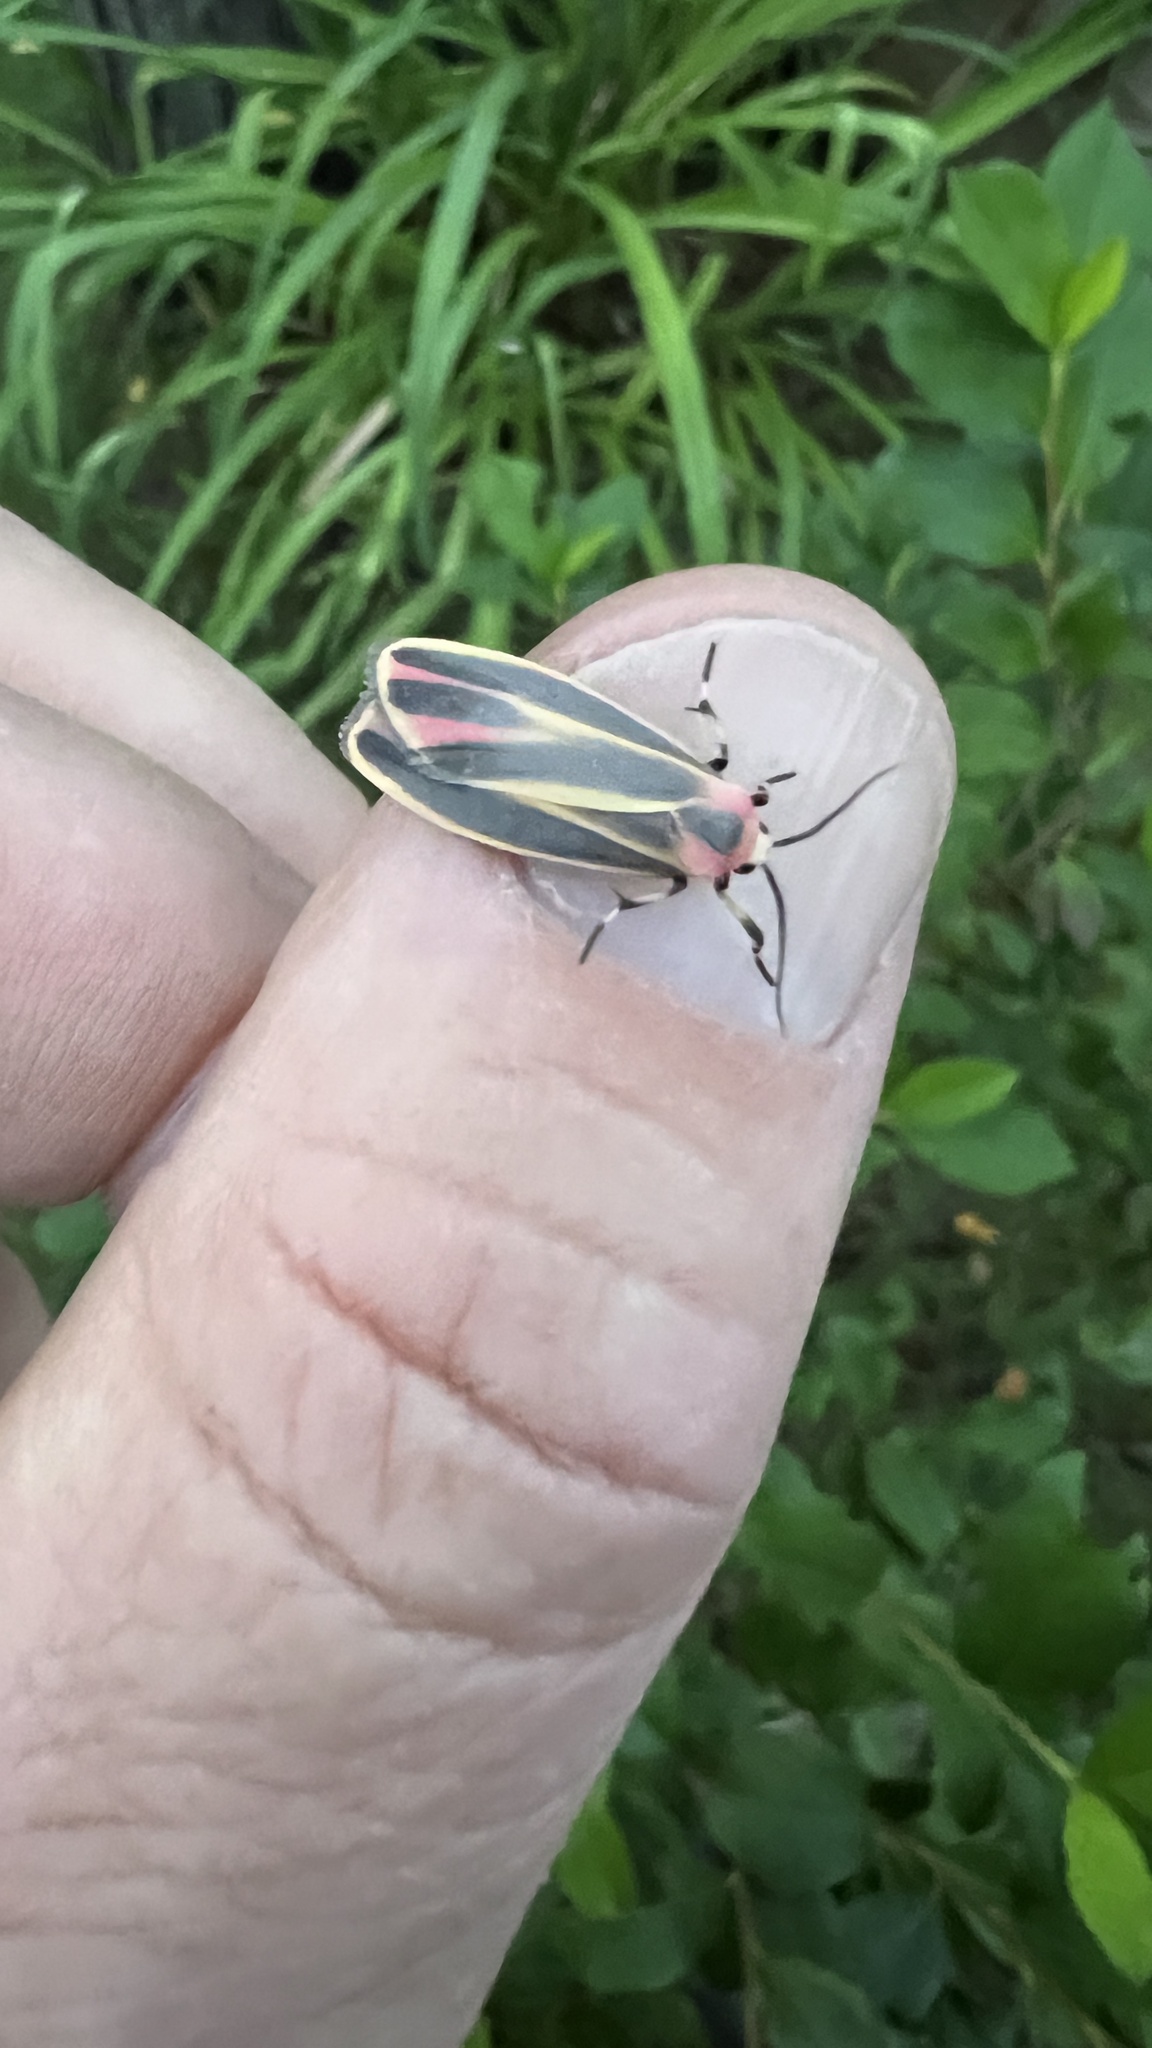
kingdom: Animalia
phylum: Arthropoda
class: Insecta
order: Lepidoptera
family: Erebidae
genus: Hypoprepia
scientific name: Hypoprepia fucosa
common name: Painted lichen moth
